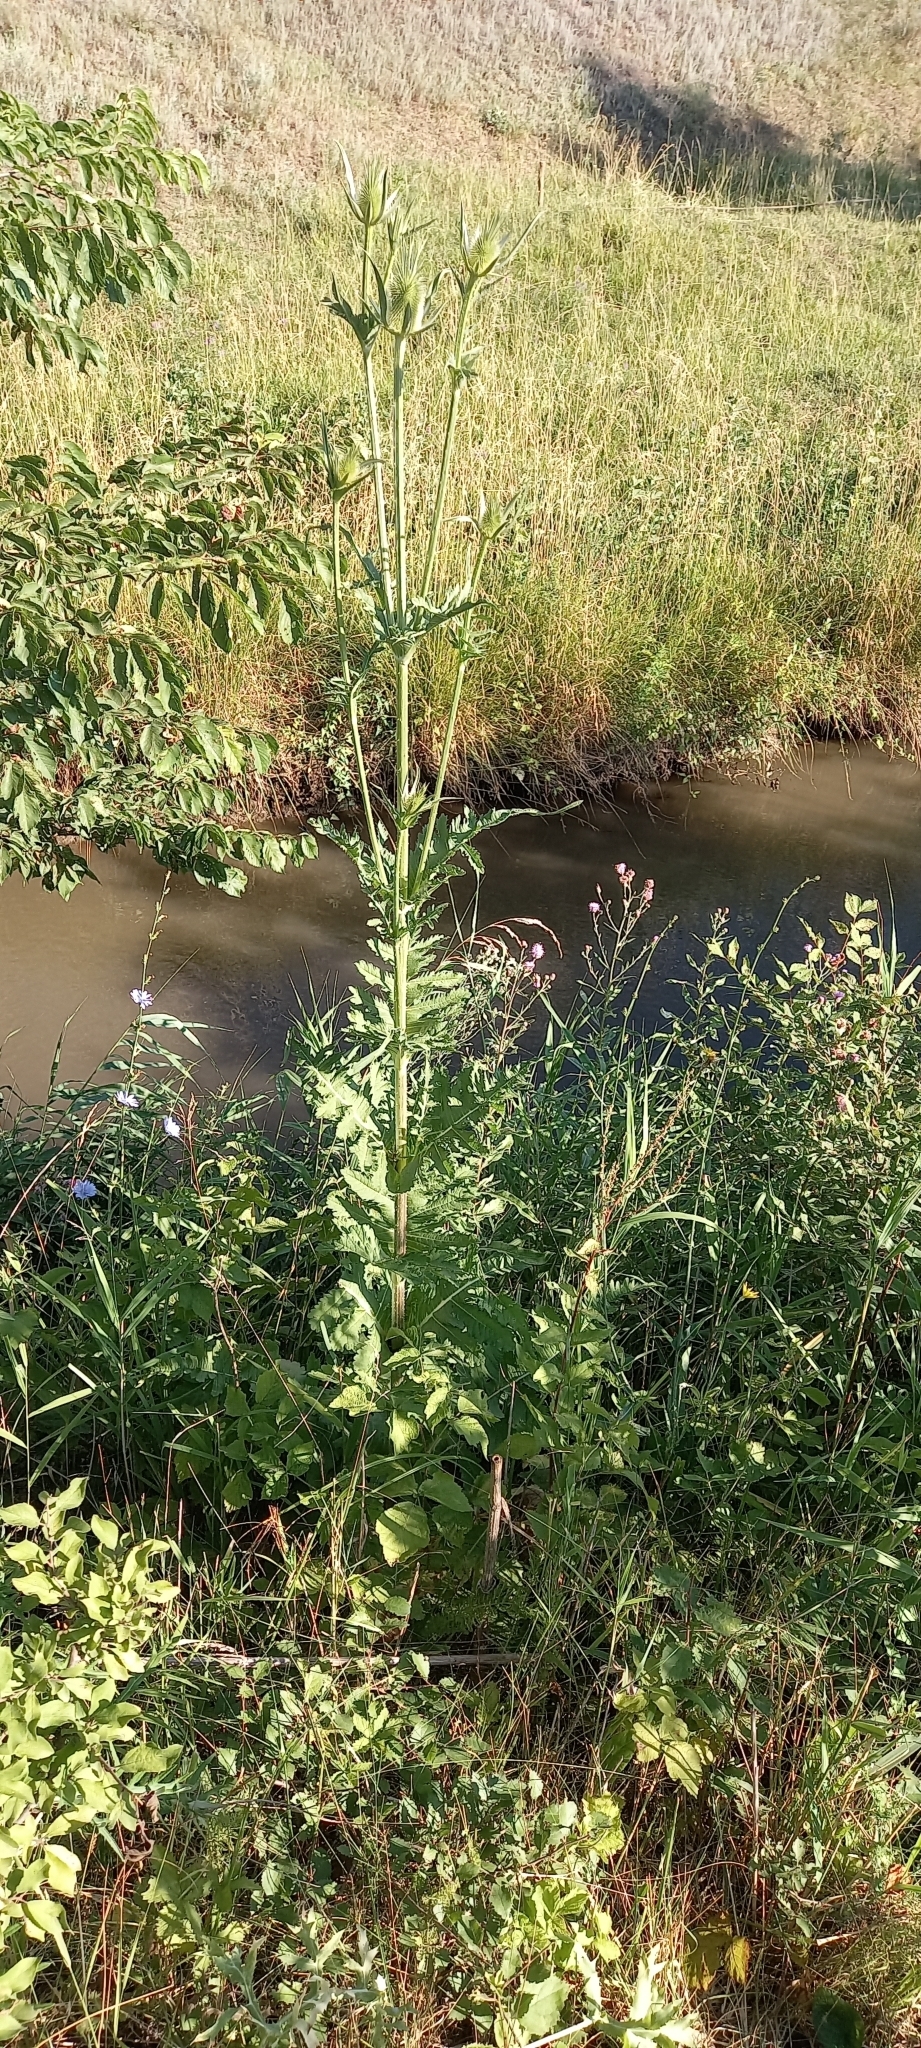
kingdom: Plantae
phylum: Tracheophyta
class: Magnoliopsida
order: Dipsacales
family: Caprifoliaceae
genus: Dipsacus
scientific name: Dipsacus laciniatus
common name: Cut-leaved teasel
